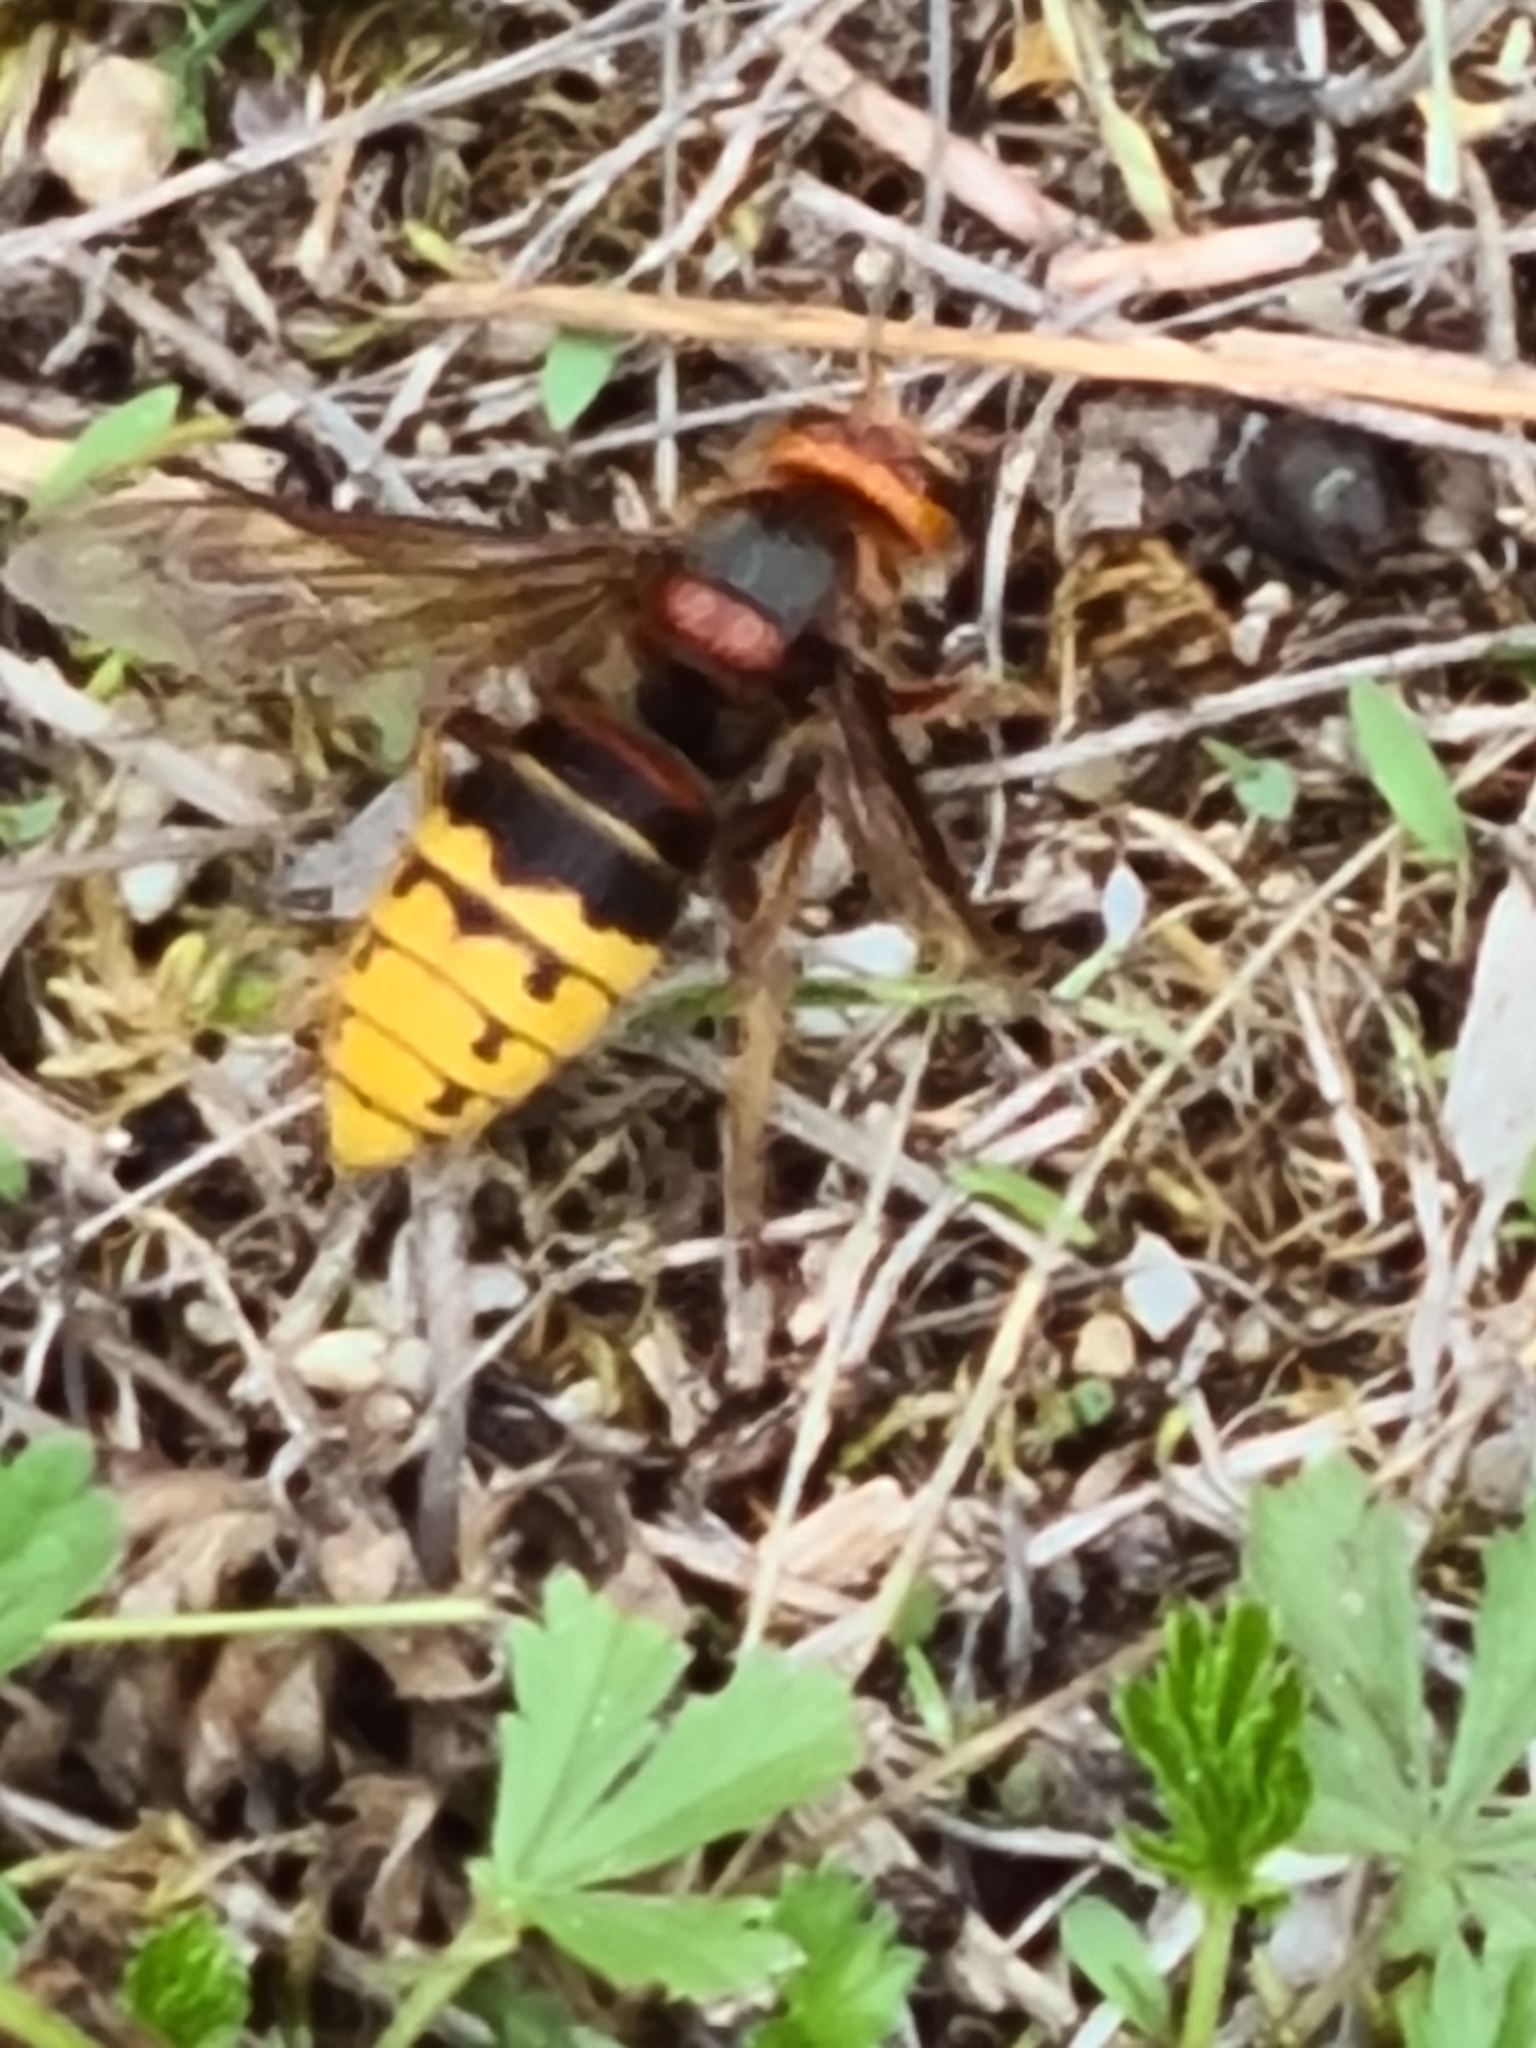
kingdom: Animalia
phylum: Arthropoda
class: Insecta
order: Hymenoptera
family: Vespidae
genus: Vespa
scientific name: Vespa crabro
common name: Hornet
